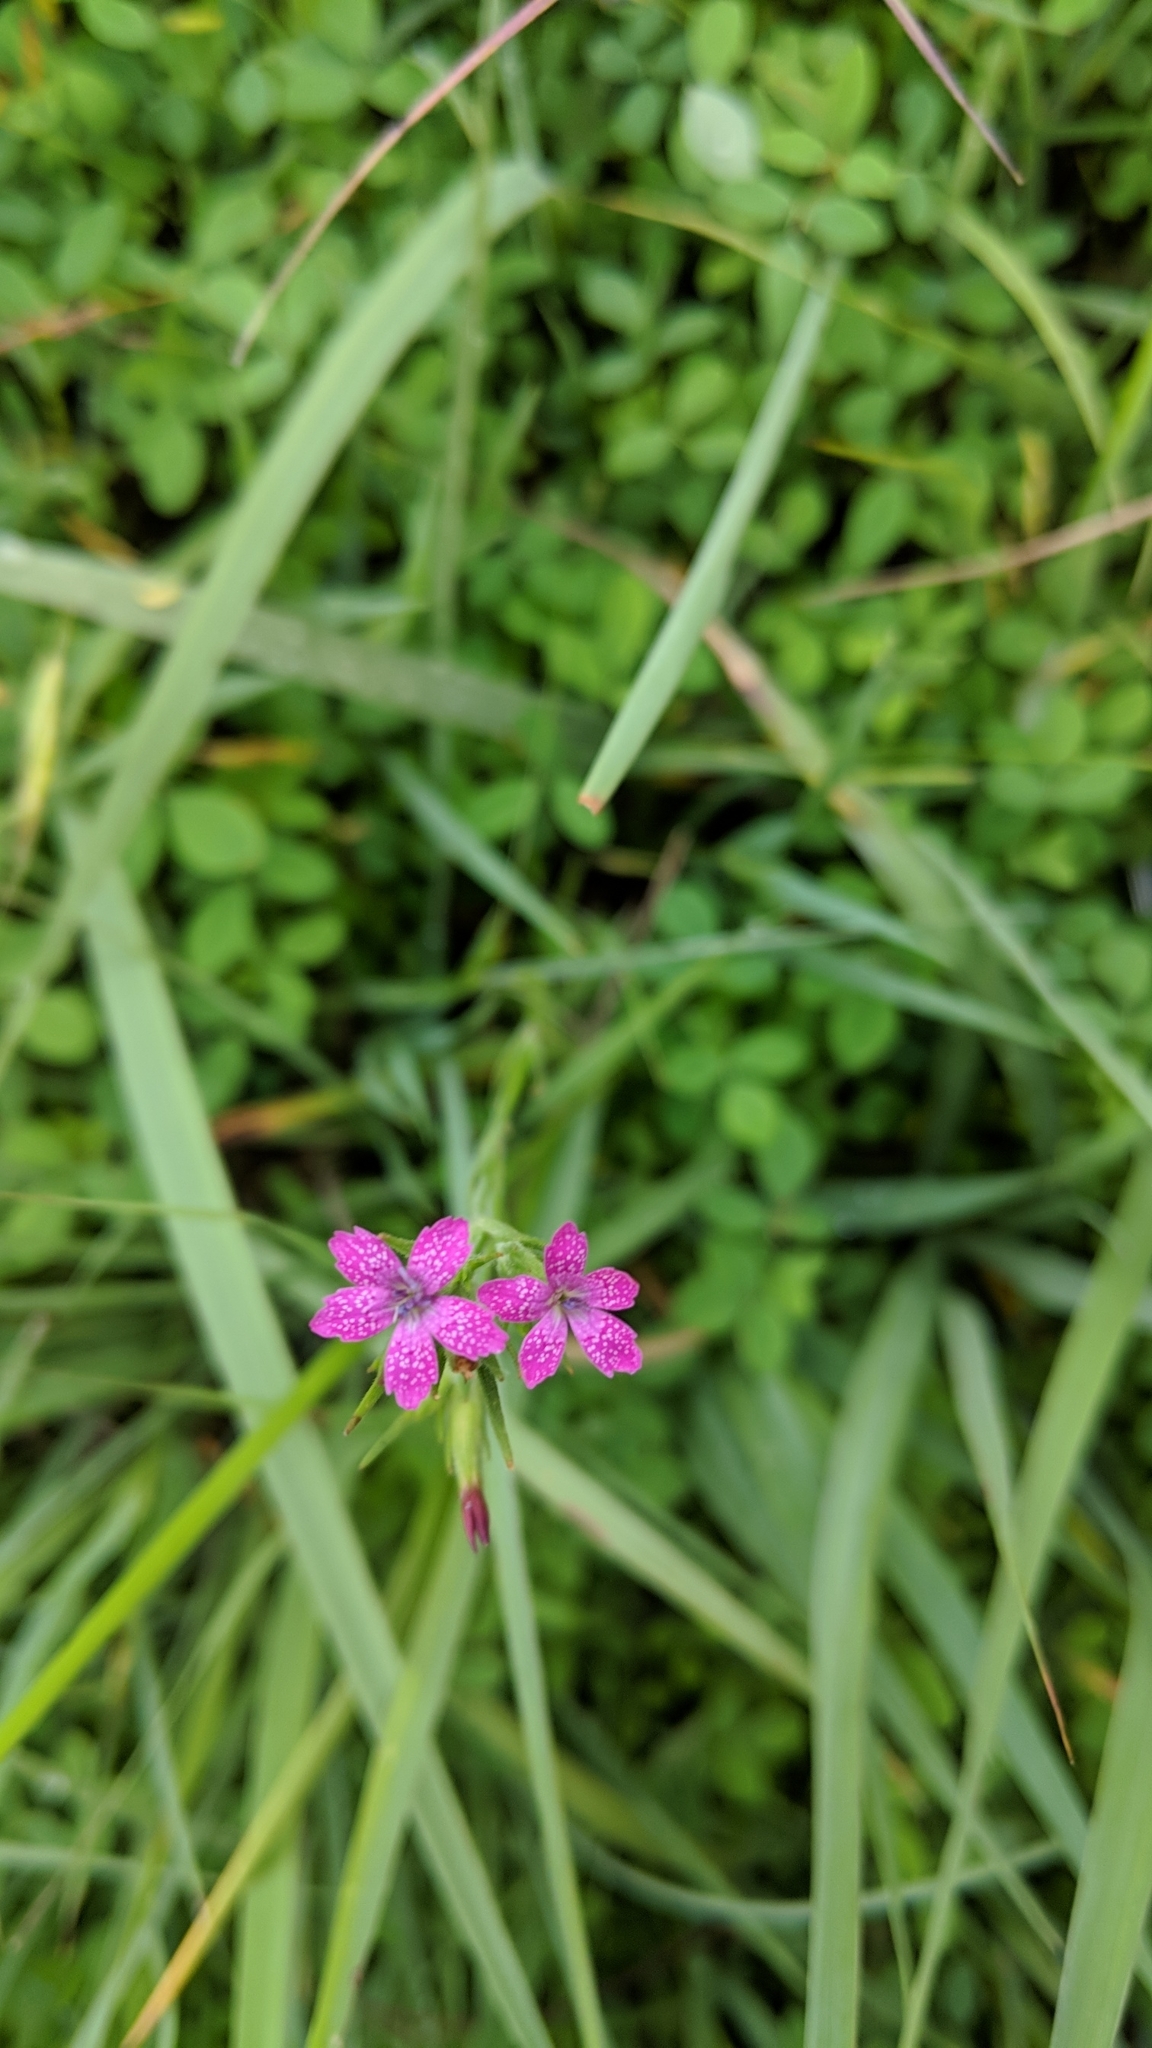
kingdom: Plantae
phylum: Tracheophyta
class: Magnoliopsida
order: Caryophyllales
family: Caryophyllaceae
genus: Dianthus
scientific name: Dianthus armeria
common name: Deptford pink
